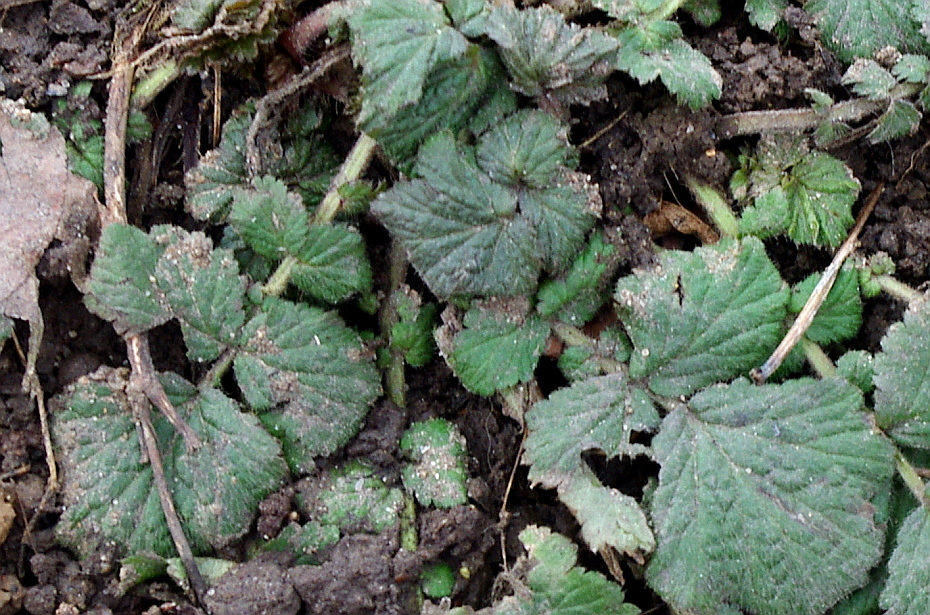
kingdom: Plantae
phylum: Tracheophyta
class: Magnoliopsida
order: Rosales
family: Rosaceae
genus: Geum
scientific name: Geum
